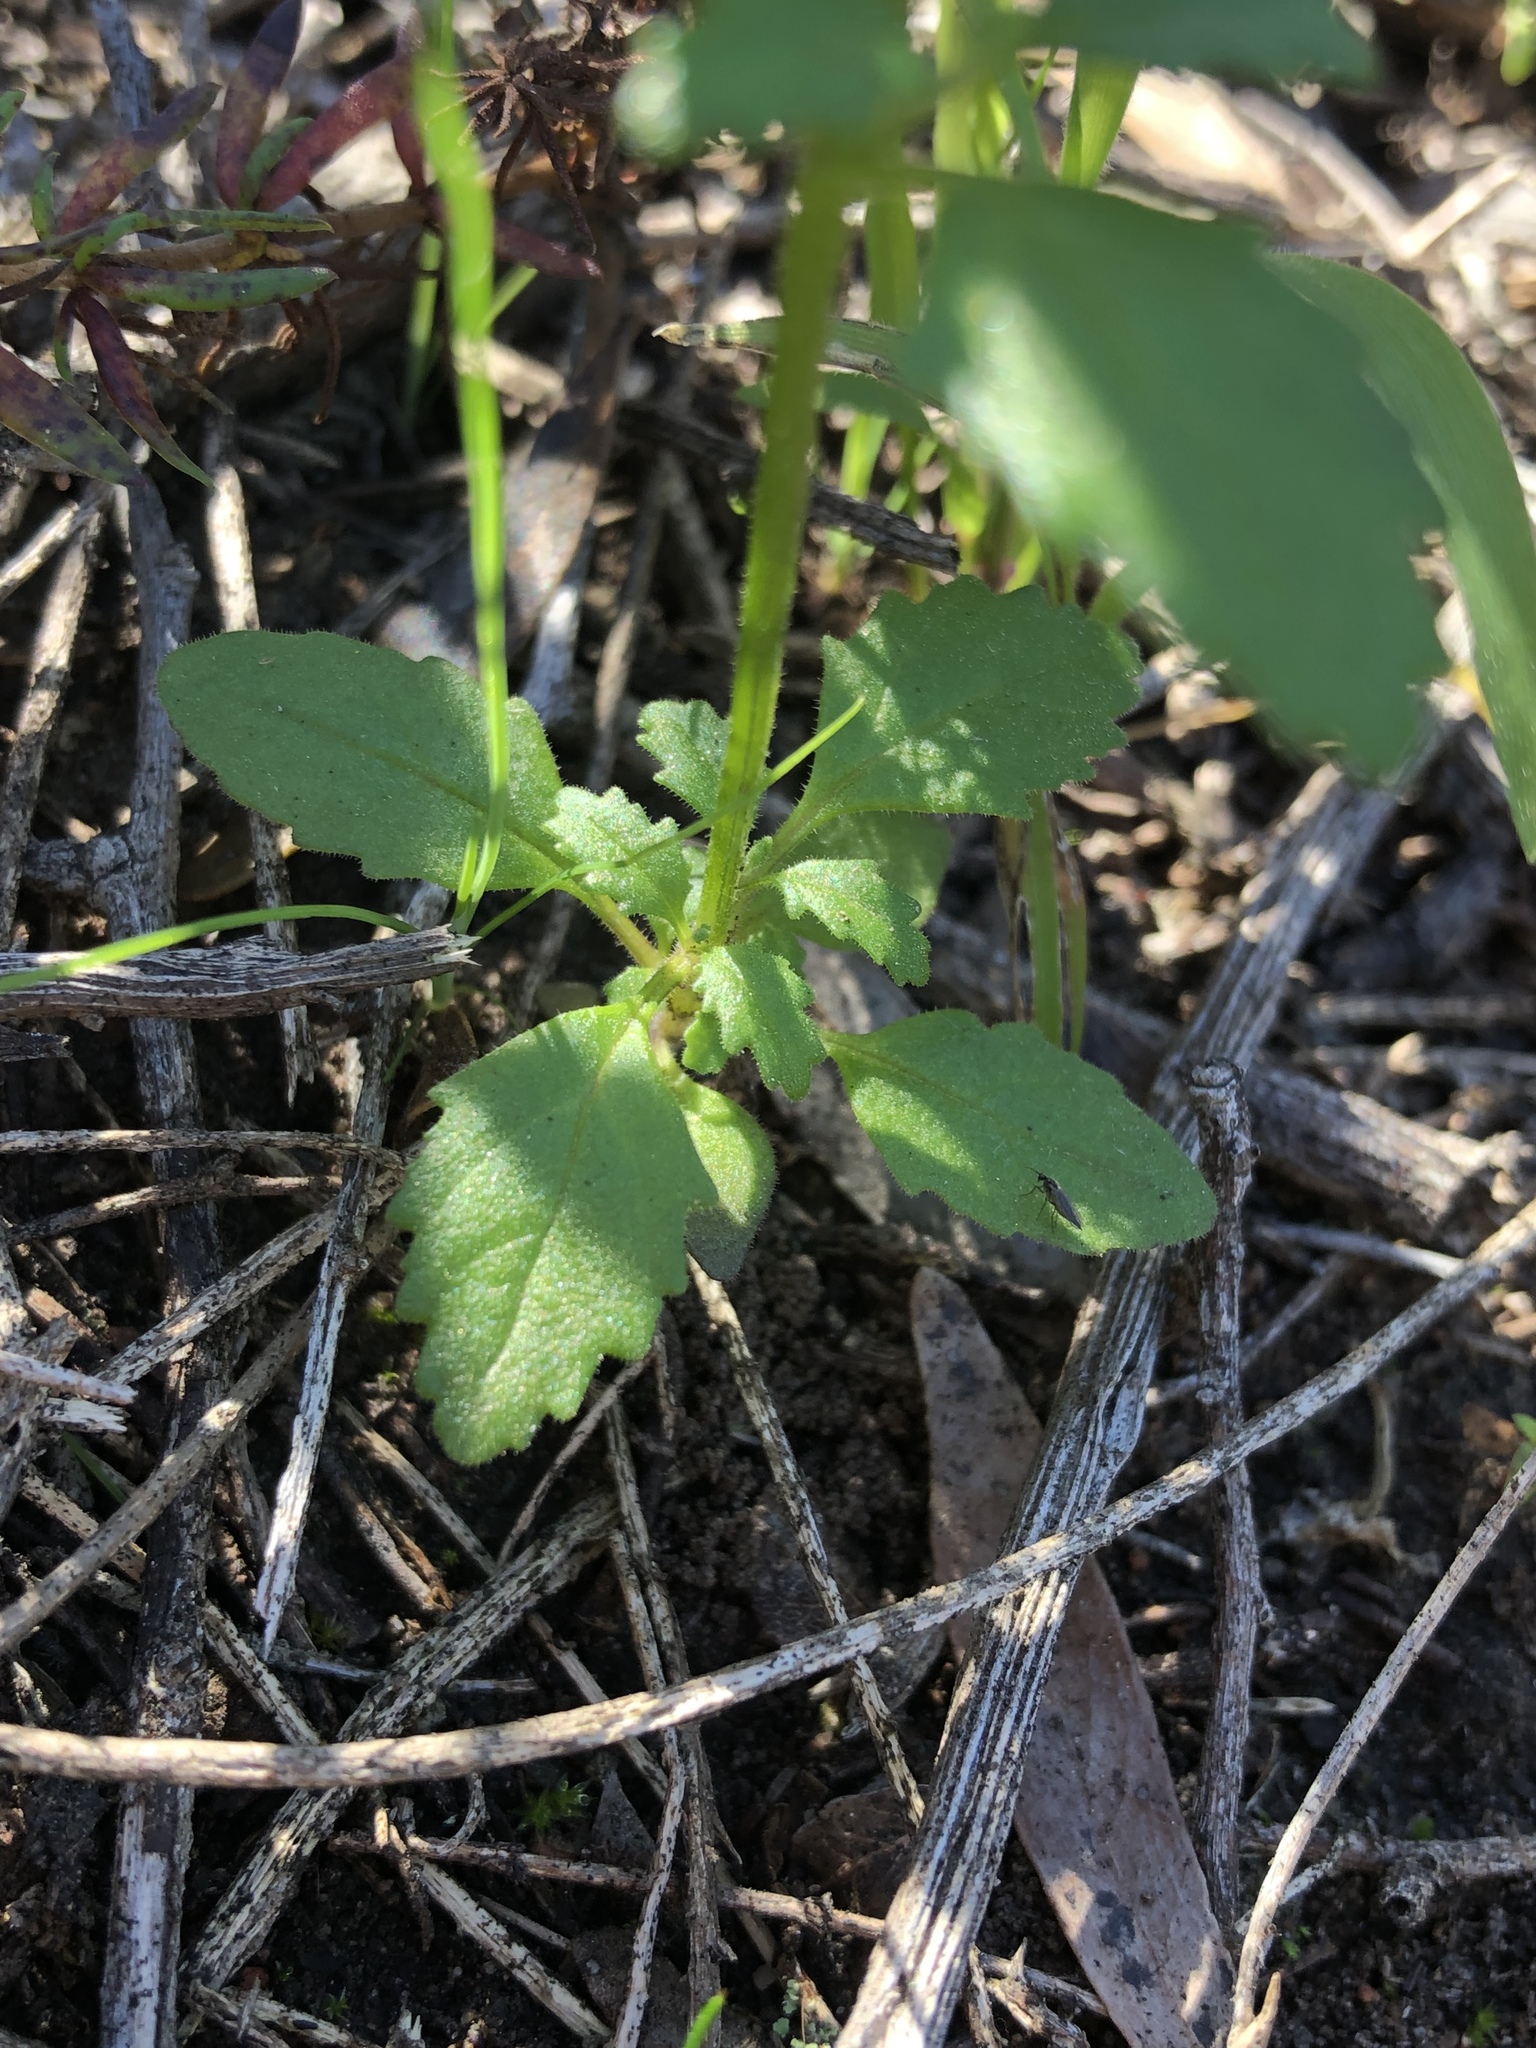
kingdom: Plantae
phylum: Tracheophyta
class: Magnoliopsida
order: Lamiales
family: Scrophulariaceae
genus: Lyperia
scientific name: Lyperia violacea
